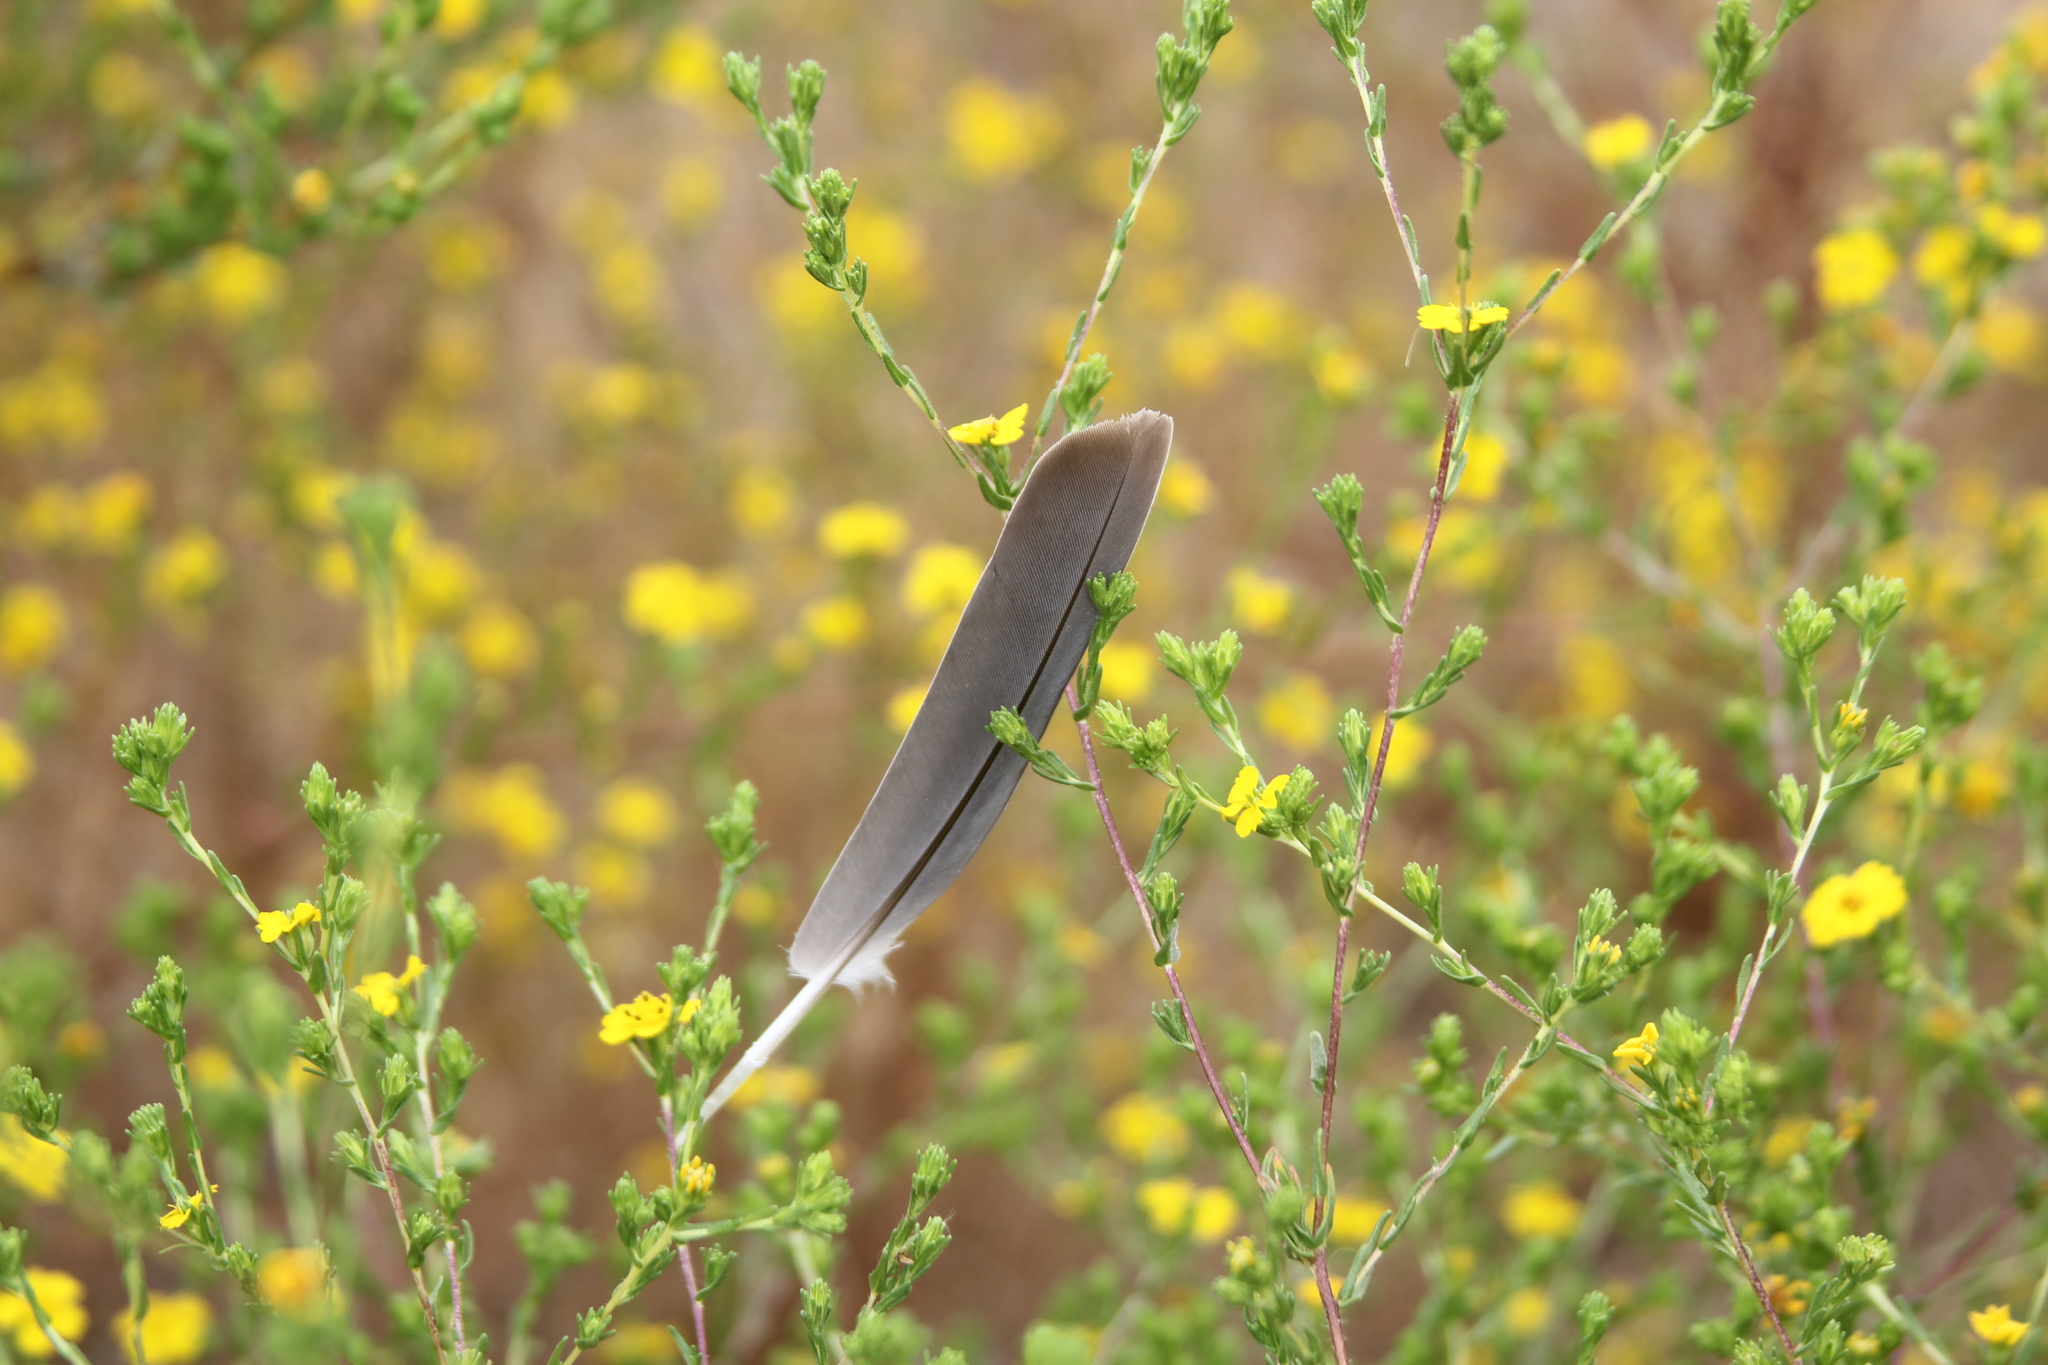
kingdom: Animalia
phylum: Chordata
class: Aves
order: Columbiformes
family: Columbidae
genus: Zenaida
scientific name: Zenaida macroura
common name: Mourning dove
